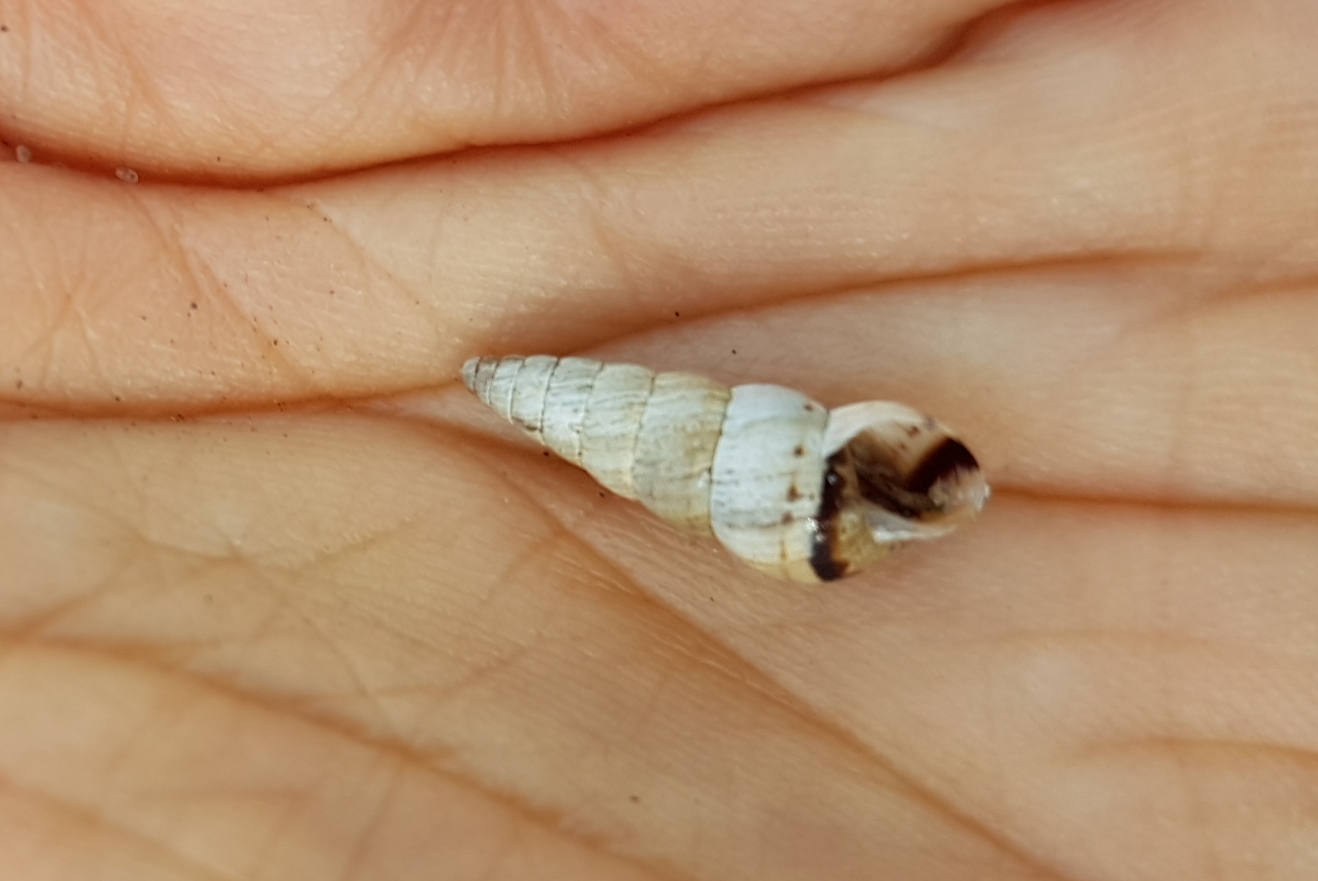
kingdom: Animalia
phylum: Mollusca
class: Gastropoda
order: Stylommatophora
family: Geomitridae
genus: Cochlicella
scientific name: Cochlicella acuta
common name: Pointed snail
